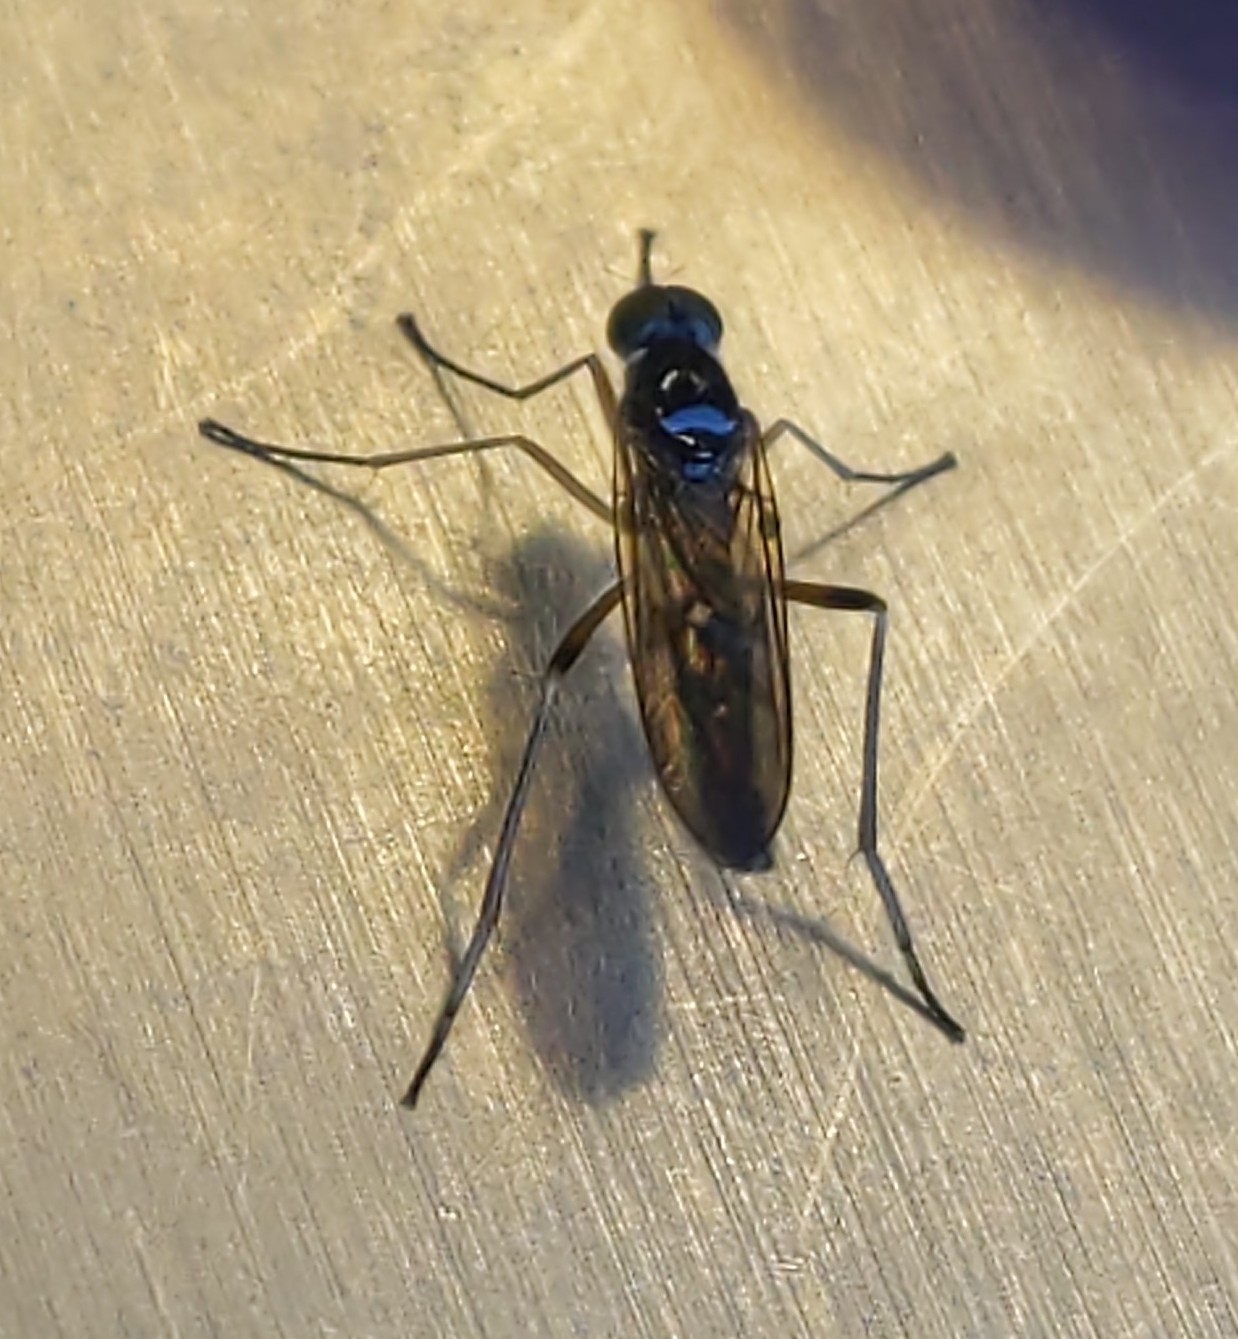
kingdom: Animalia
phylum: Arthropoda
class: Insecta
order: Diptera
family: Xylophagidae
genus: Dialysis
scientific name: Dialysis elongata
